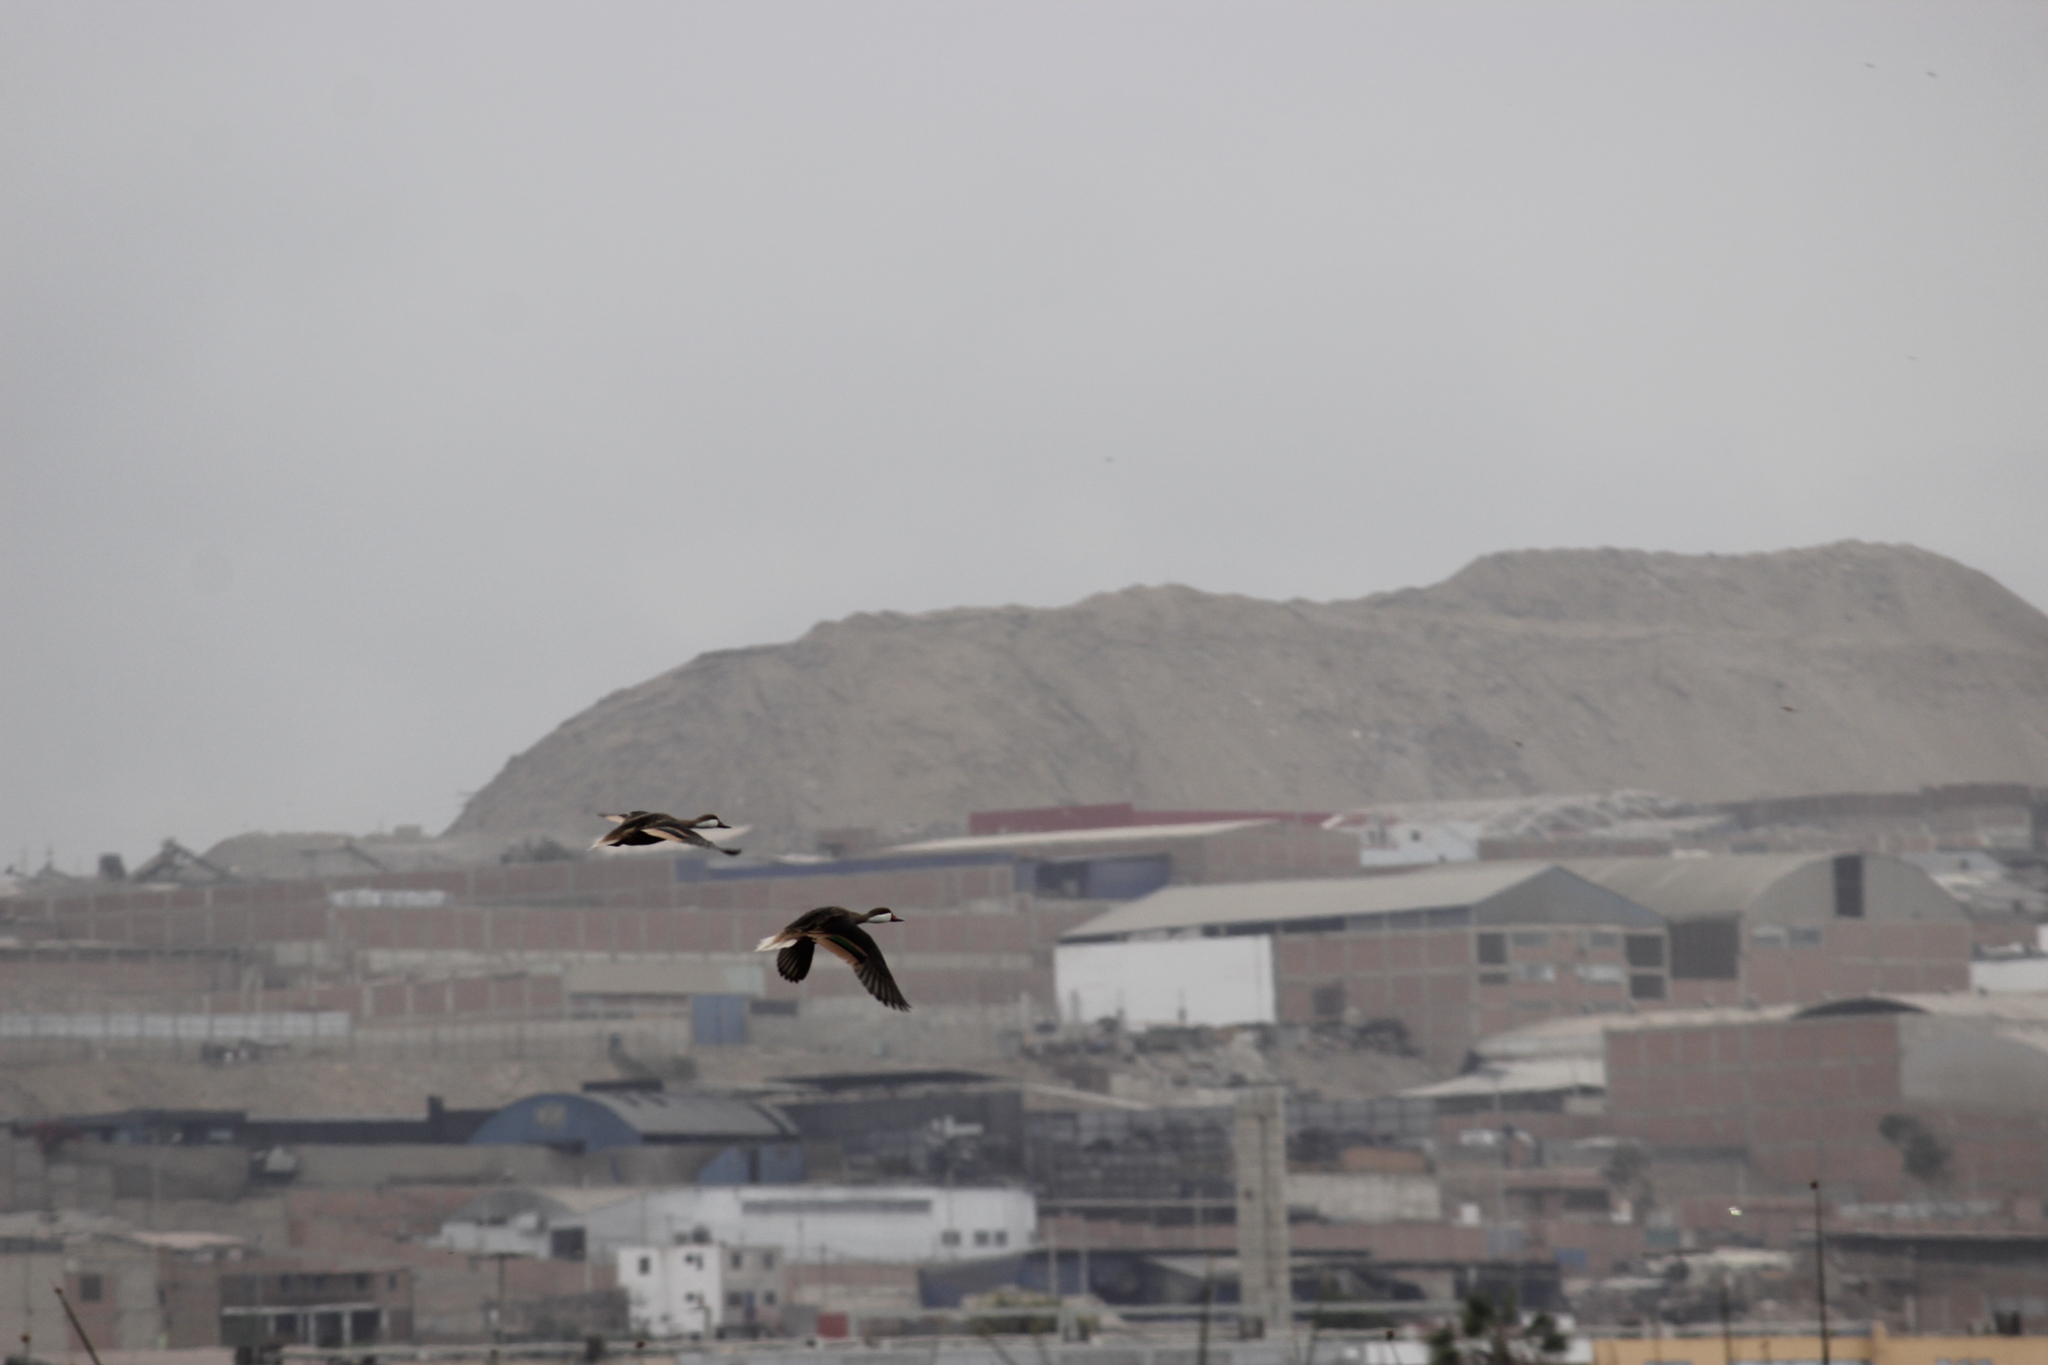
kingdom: Animalia
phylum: Chordata
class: Aves
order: Anseriformes
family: Anatidae
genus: Anas
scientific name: Anas bahamensis
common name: White-cheeked pintail
